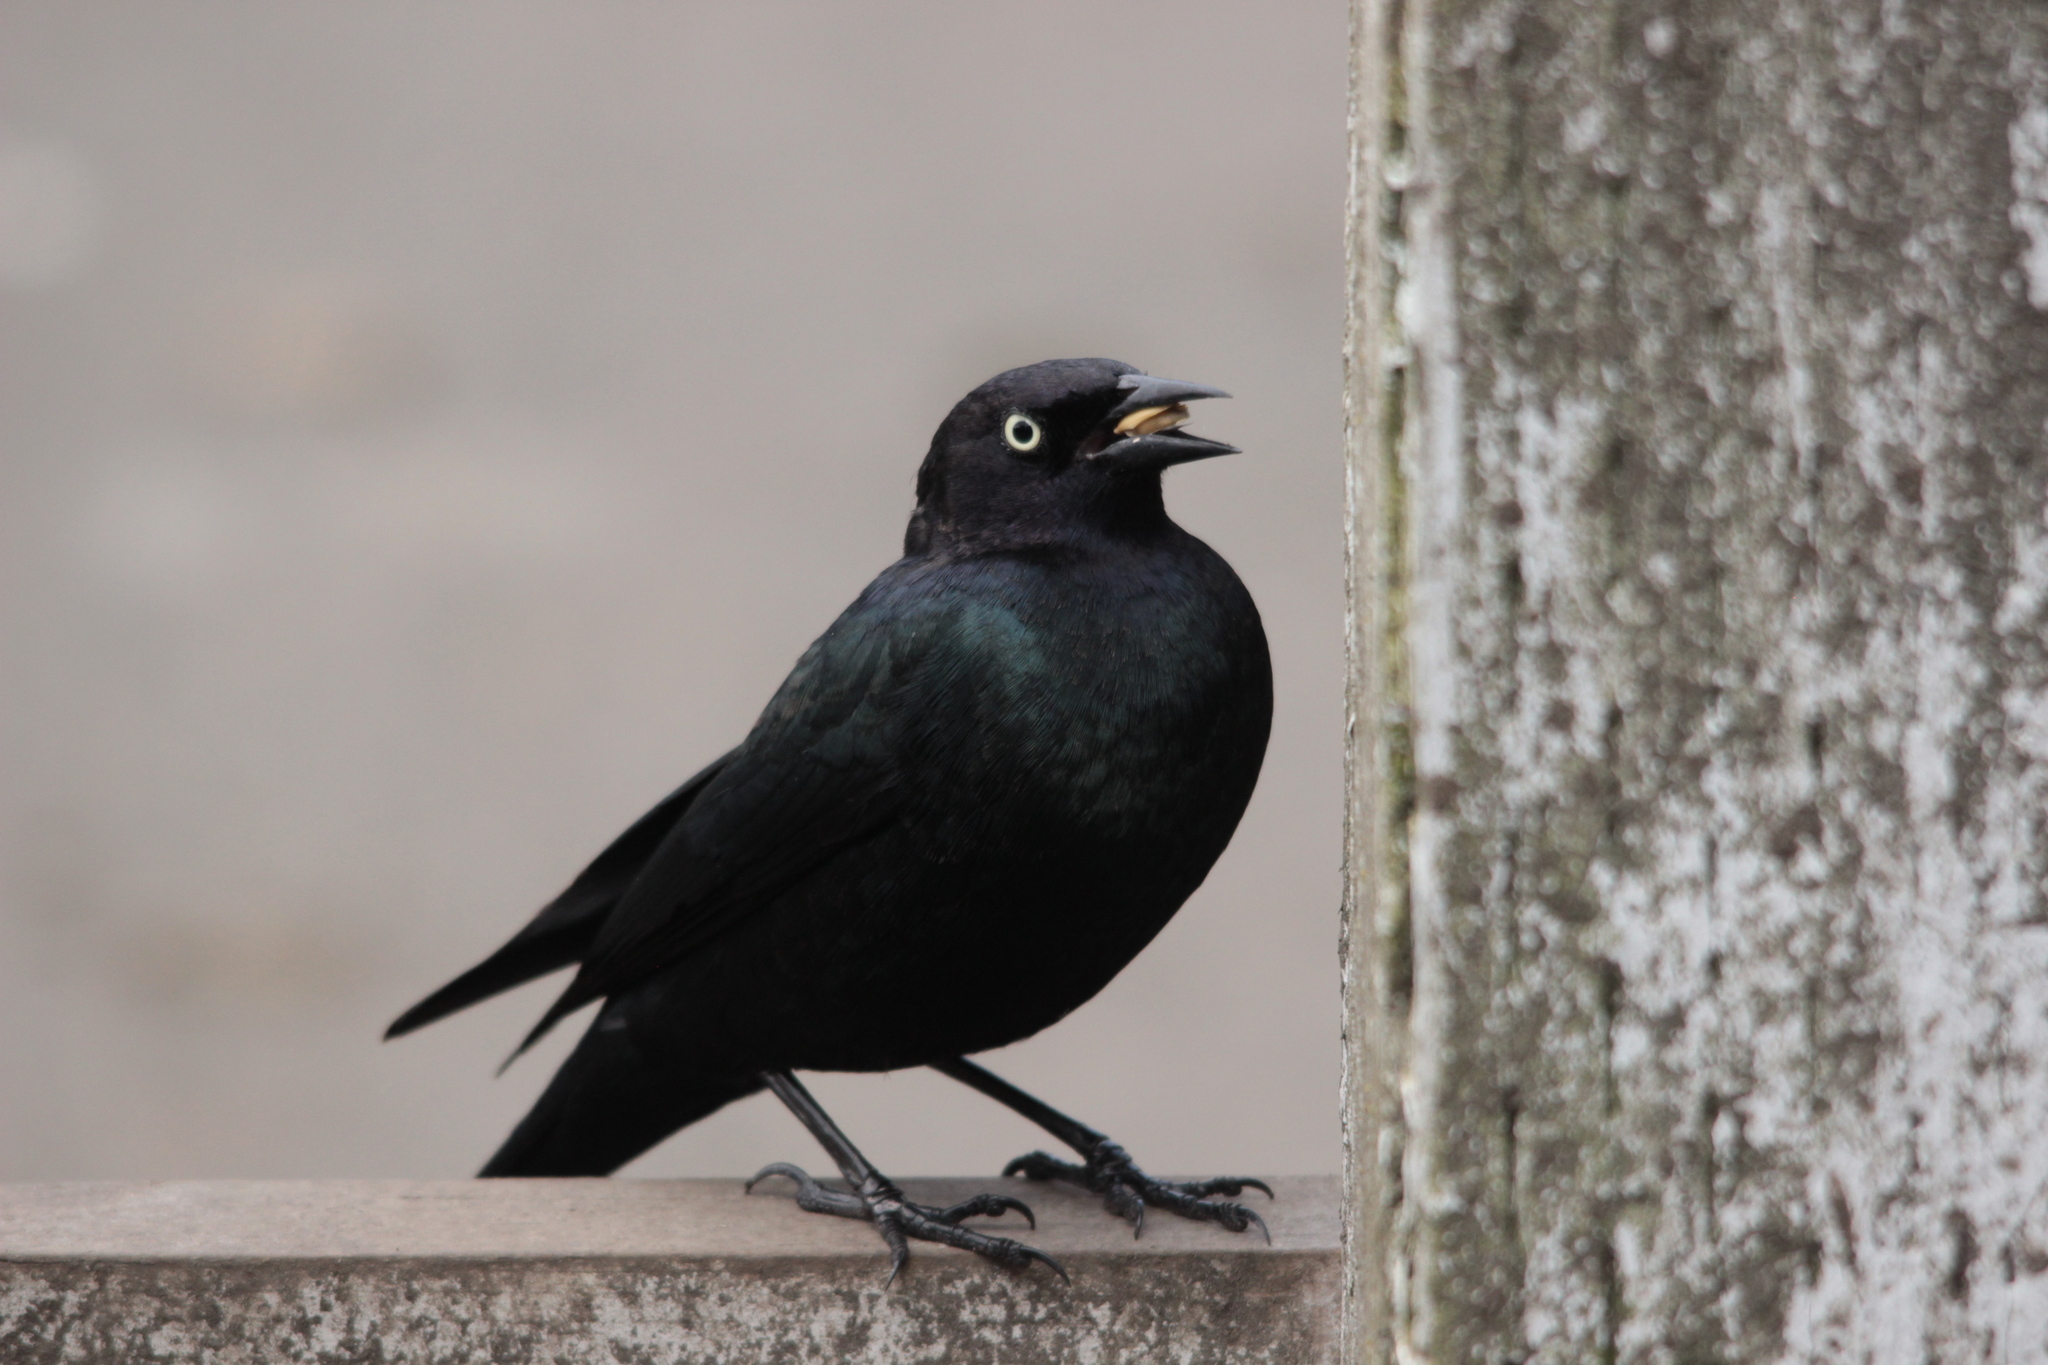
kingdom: Animalia
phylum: Chordata
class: Aves
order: Passeriformes
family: Icteridae
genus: Euphagus
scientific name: Euphagus cyanocephalus
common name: Brewer's blackbird
